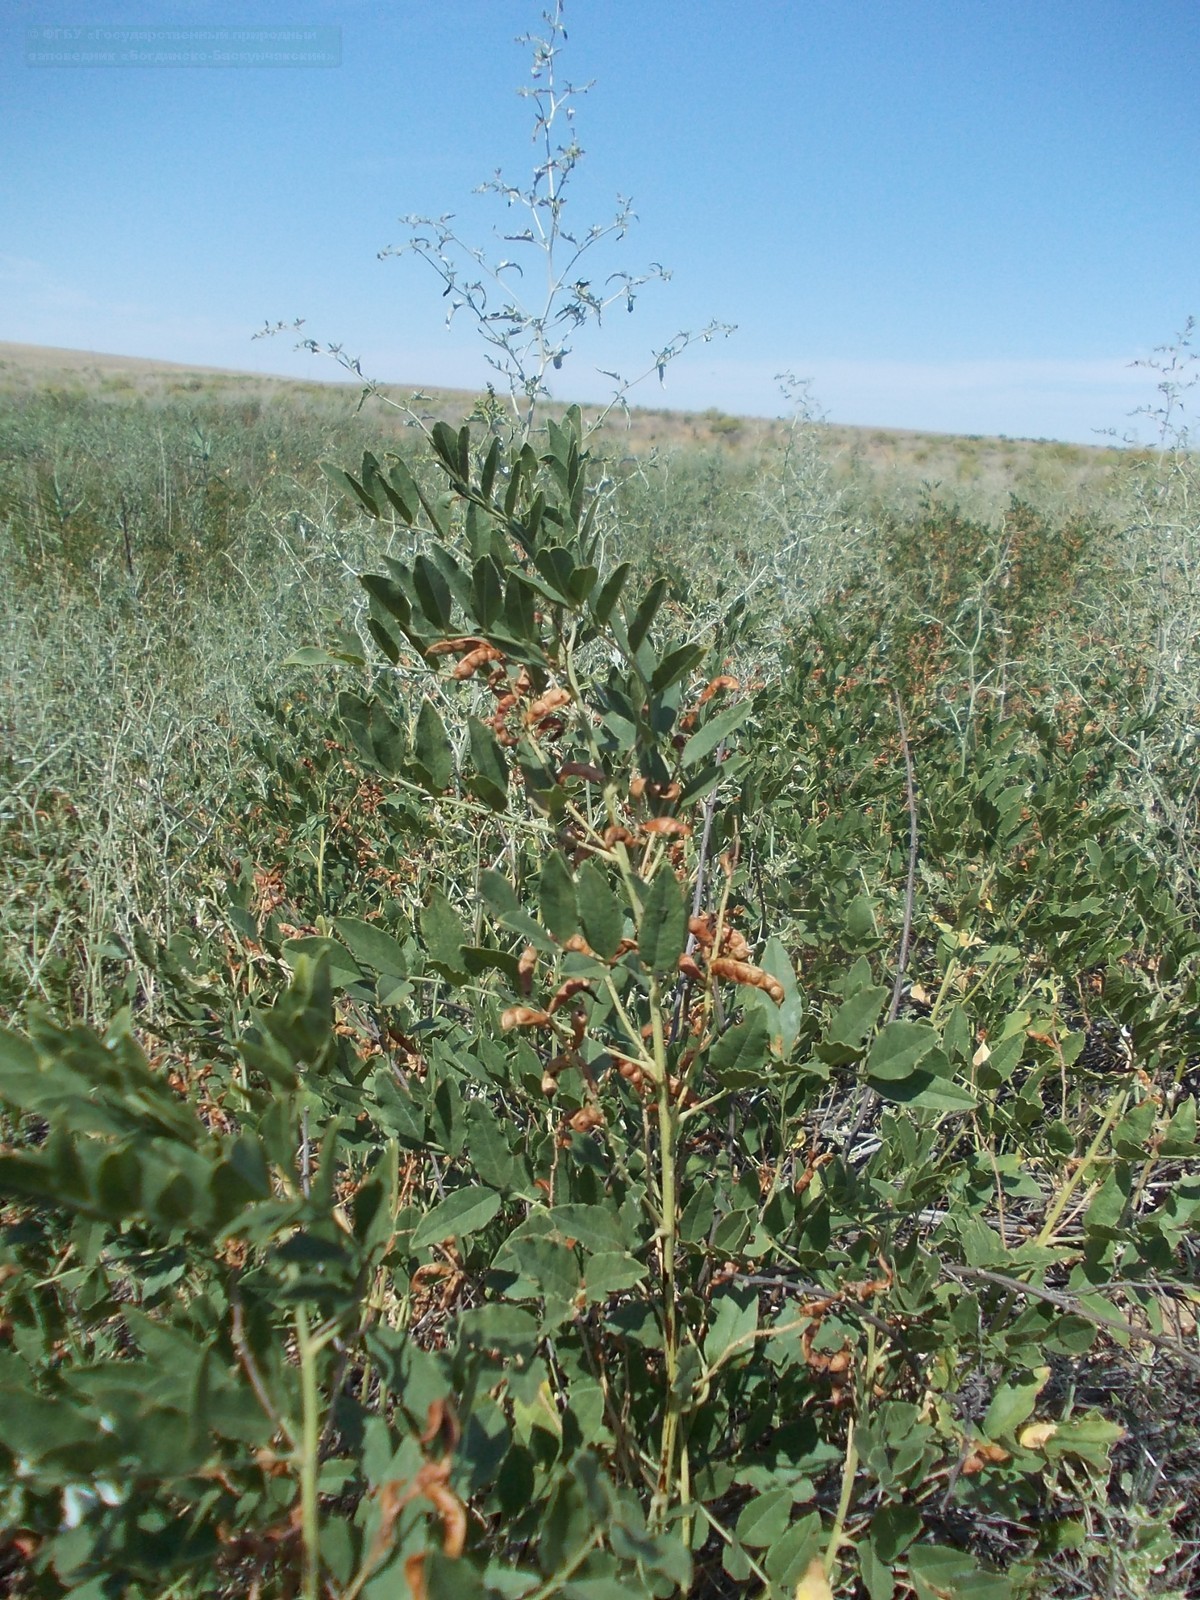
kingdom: Plantae
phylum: Tracheophyta
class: Magnoliopsida
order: Fabales
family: Fabaceae
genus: Glycyrrhiza
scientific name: Glycyrrhiza glabra
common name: Liquorice
